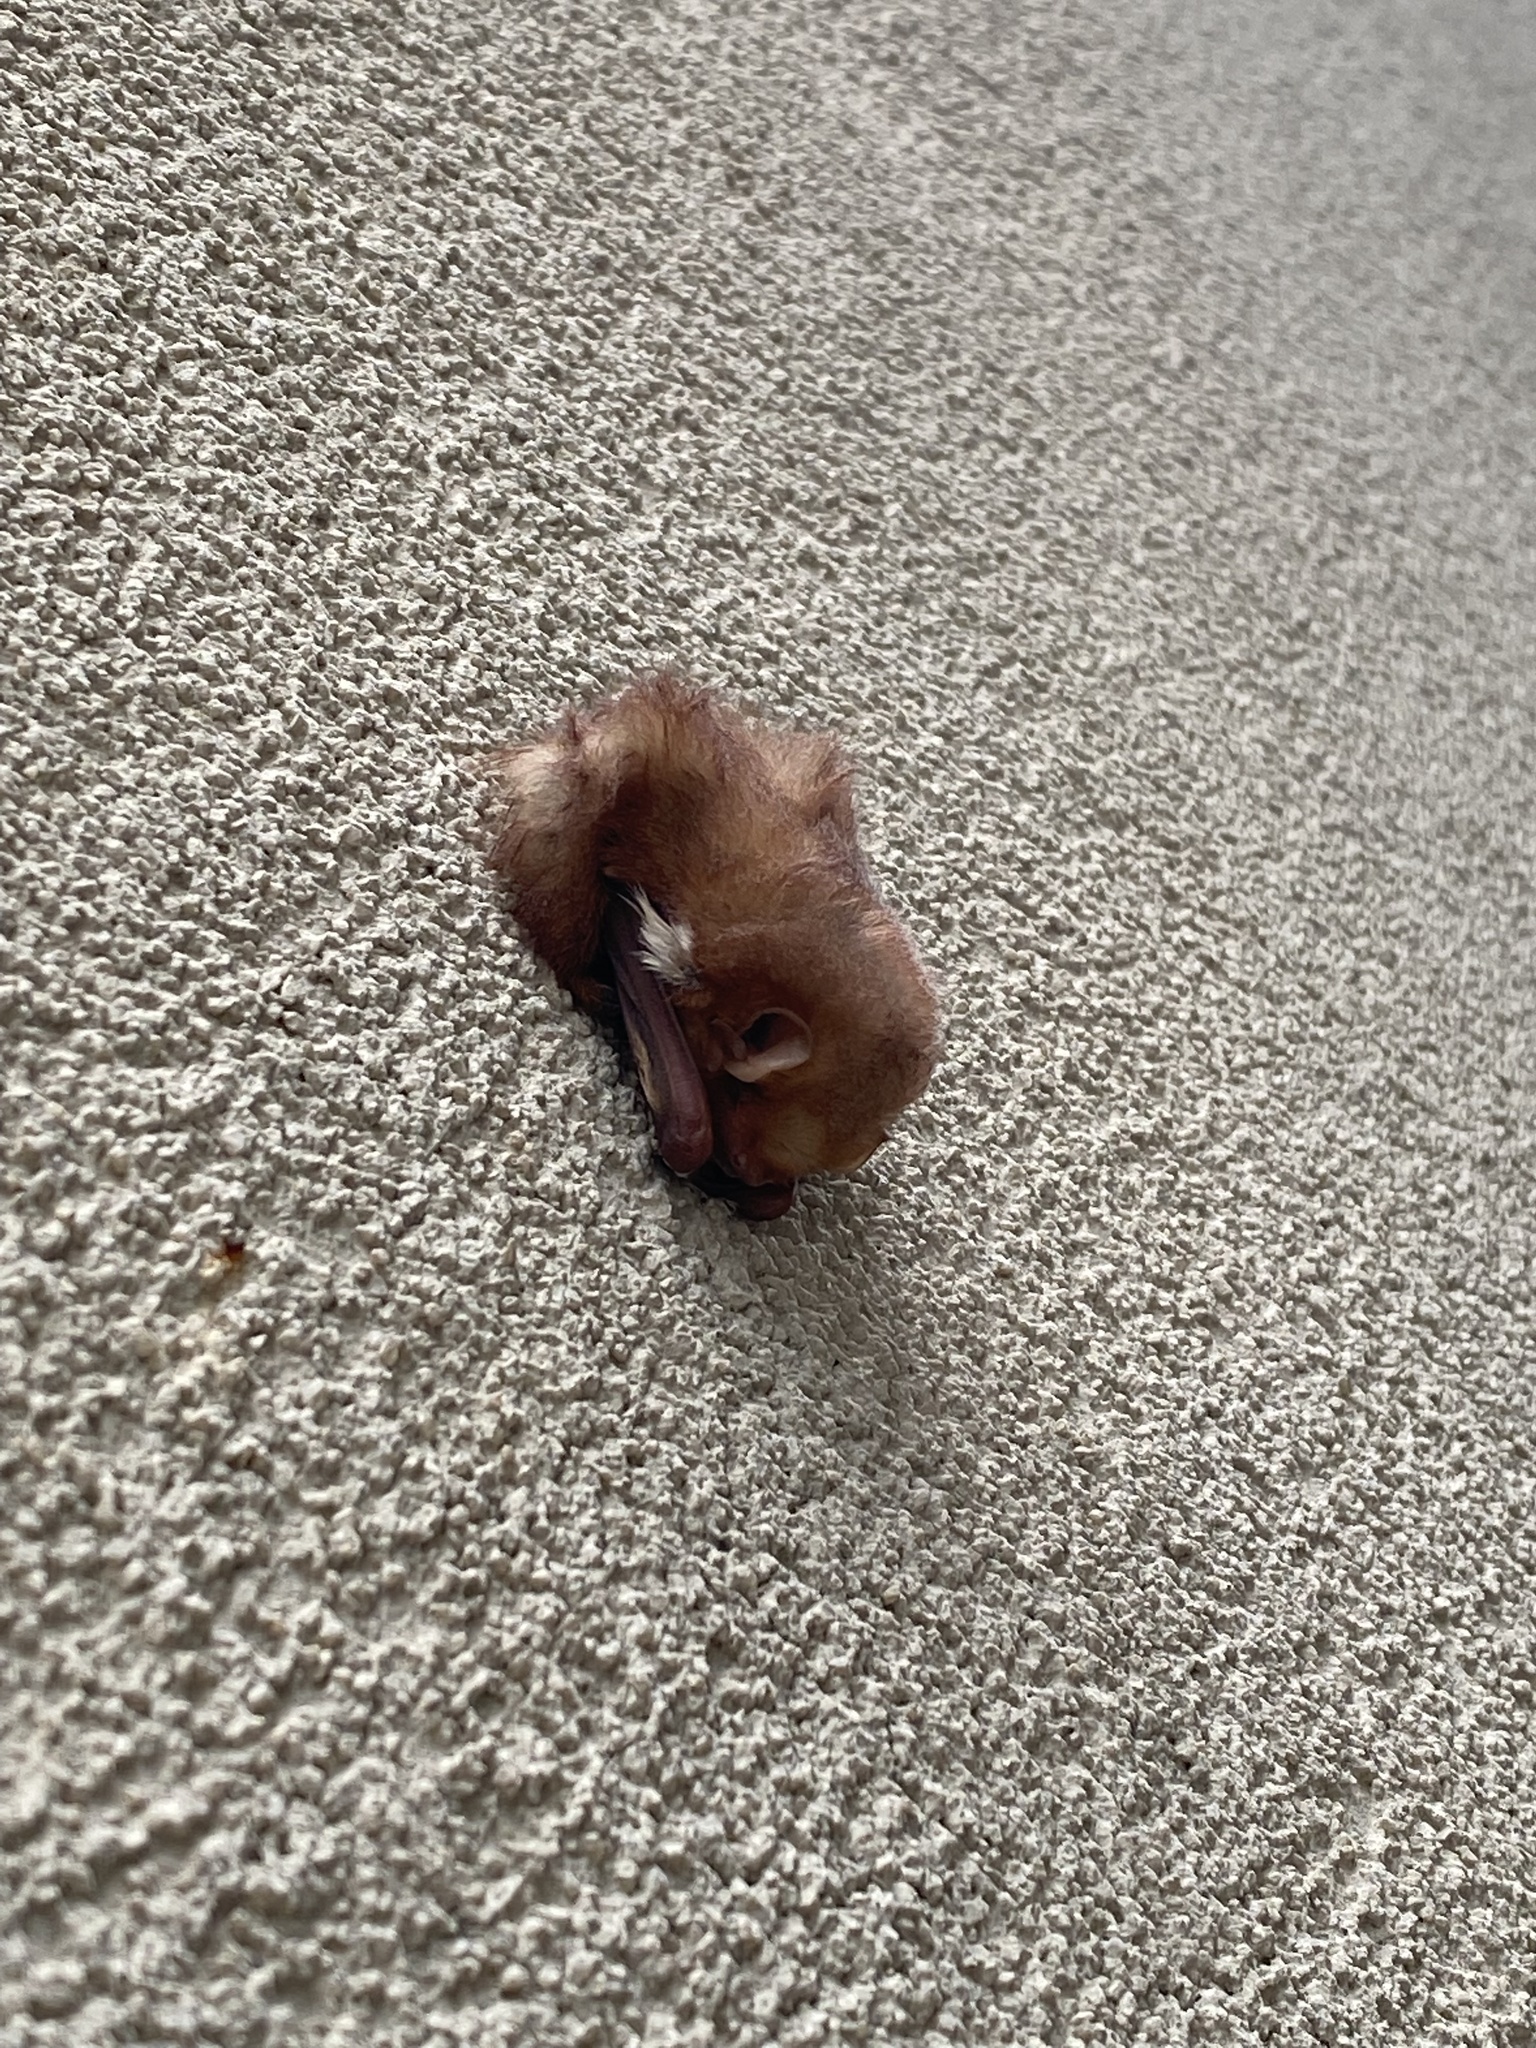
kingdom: Animalia
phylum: Chordata
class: Mammalia
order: Chiroptera
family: Vespertilionidae
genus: Lasiurus
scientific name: Lasiurus borealis
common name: Eastern red bat
